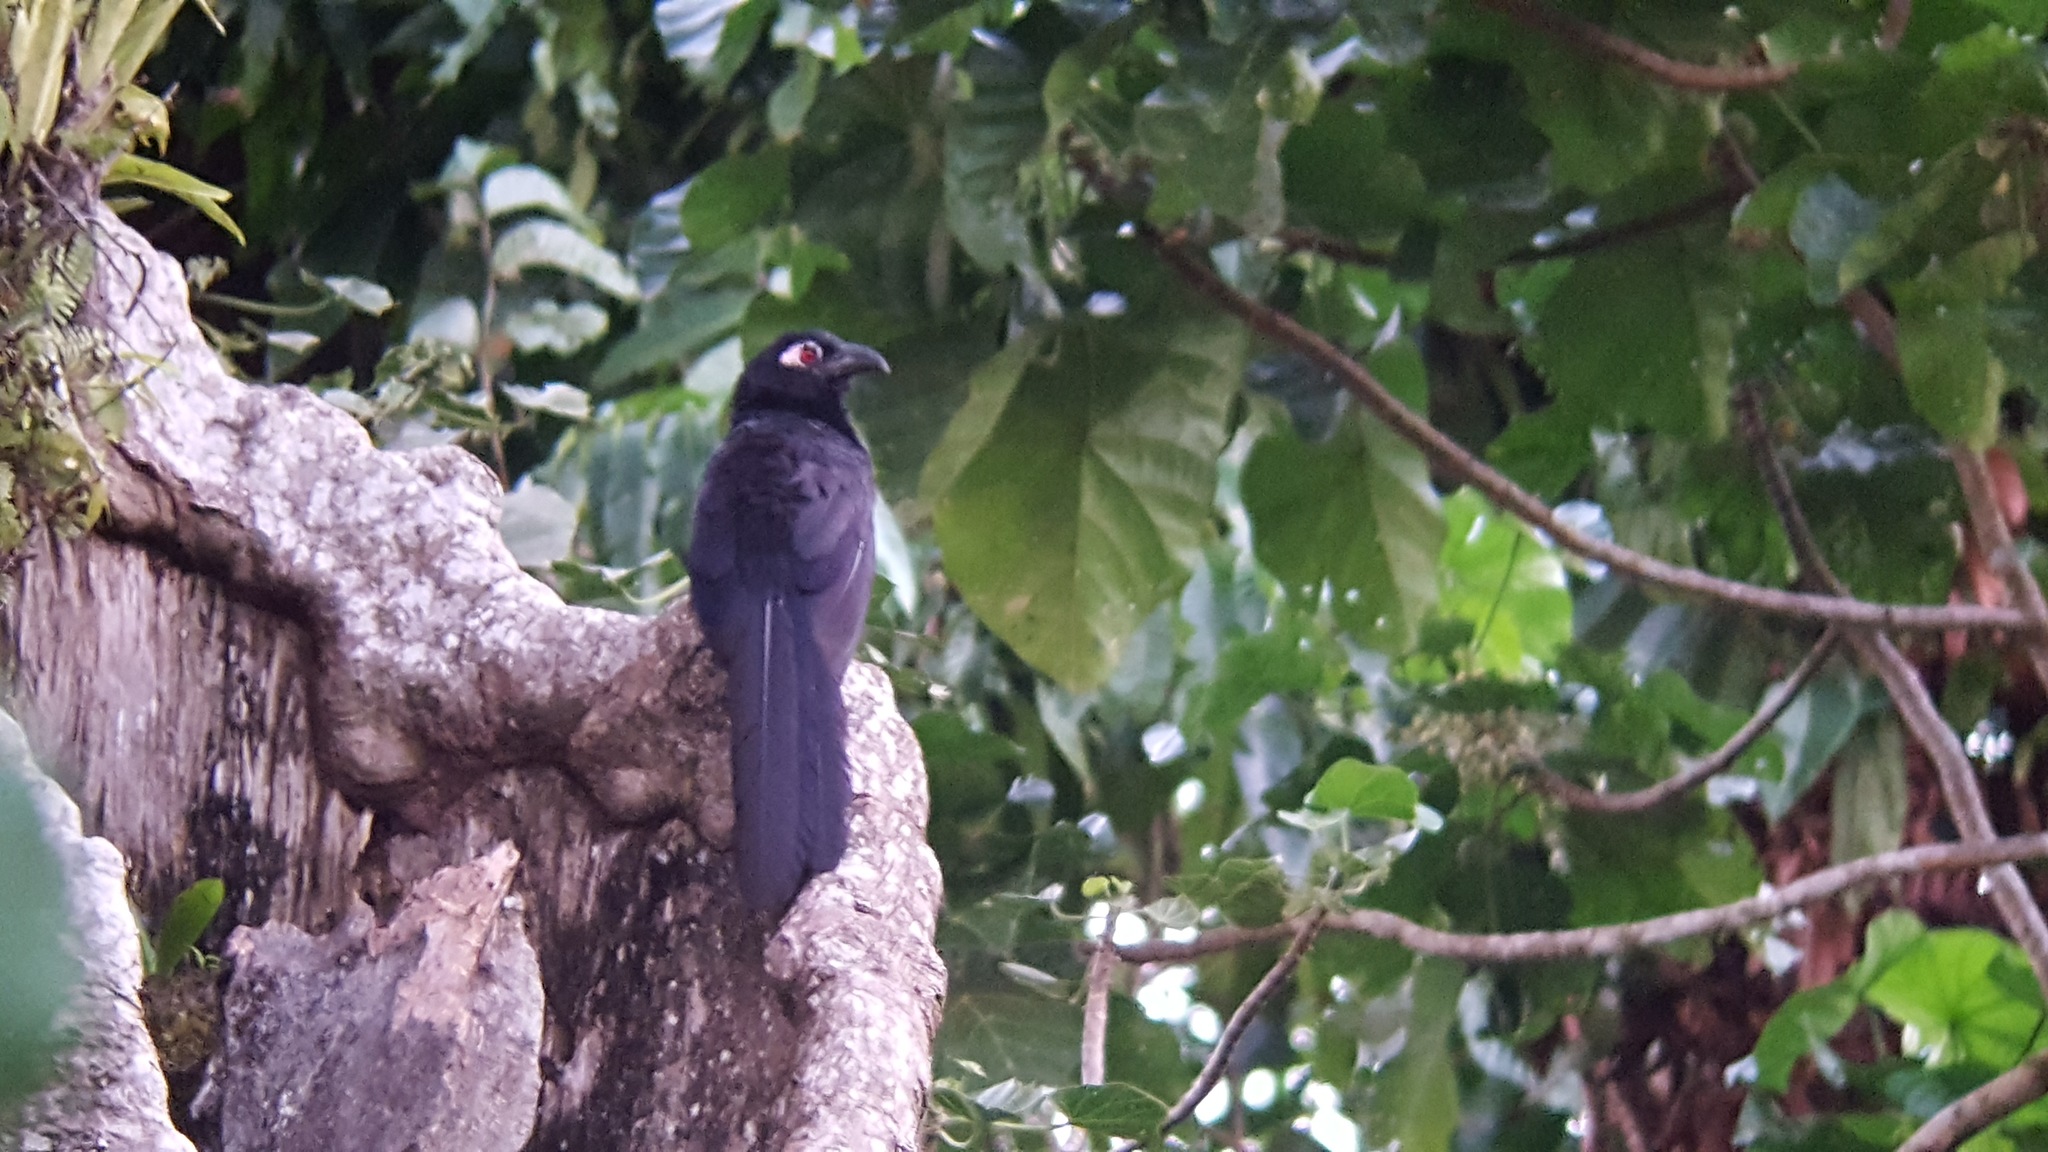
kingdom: Animalia
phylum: Chordata
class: Aves
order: Cuculiformes
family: Cuculidae
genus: Centropus
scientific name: Centropus violaceus
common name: Violaceous coucal
